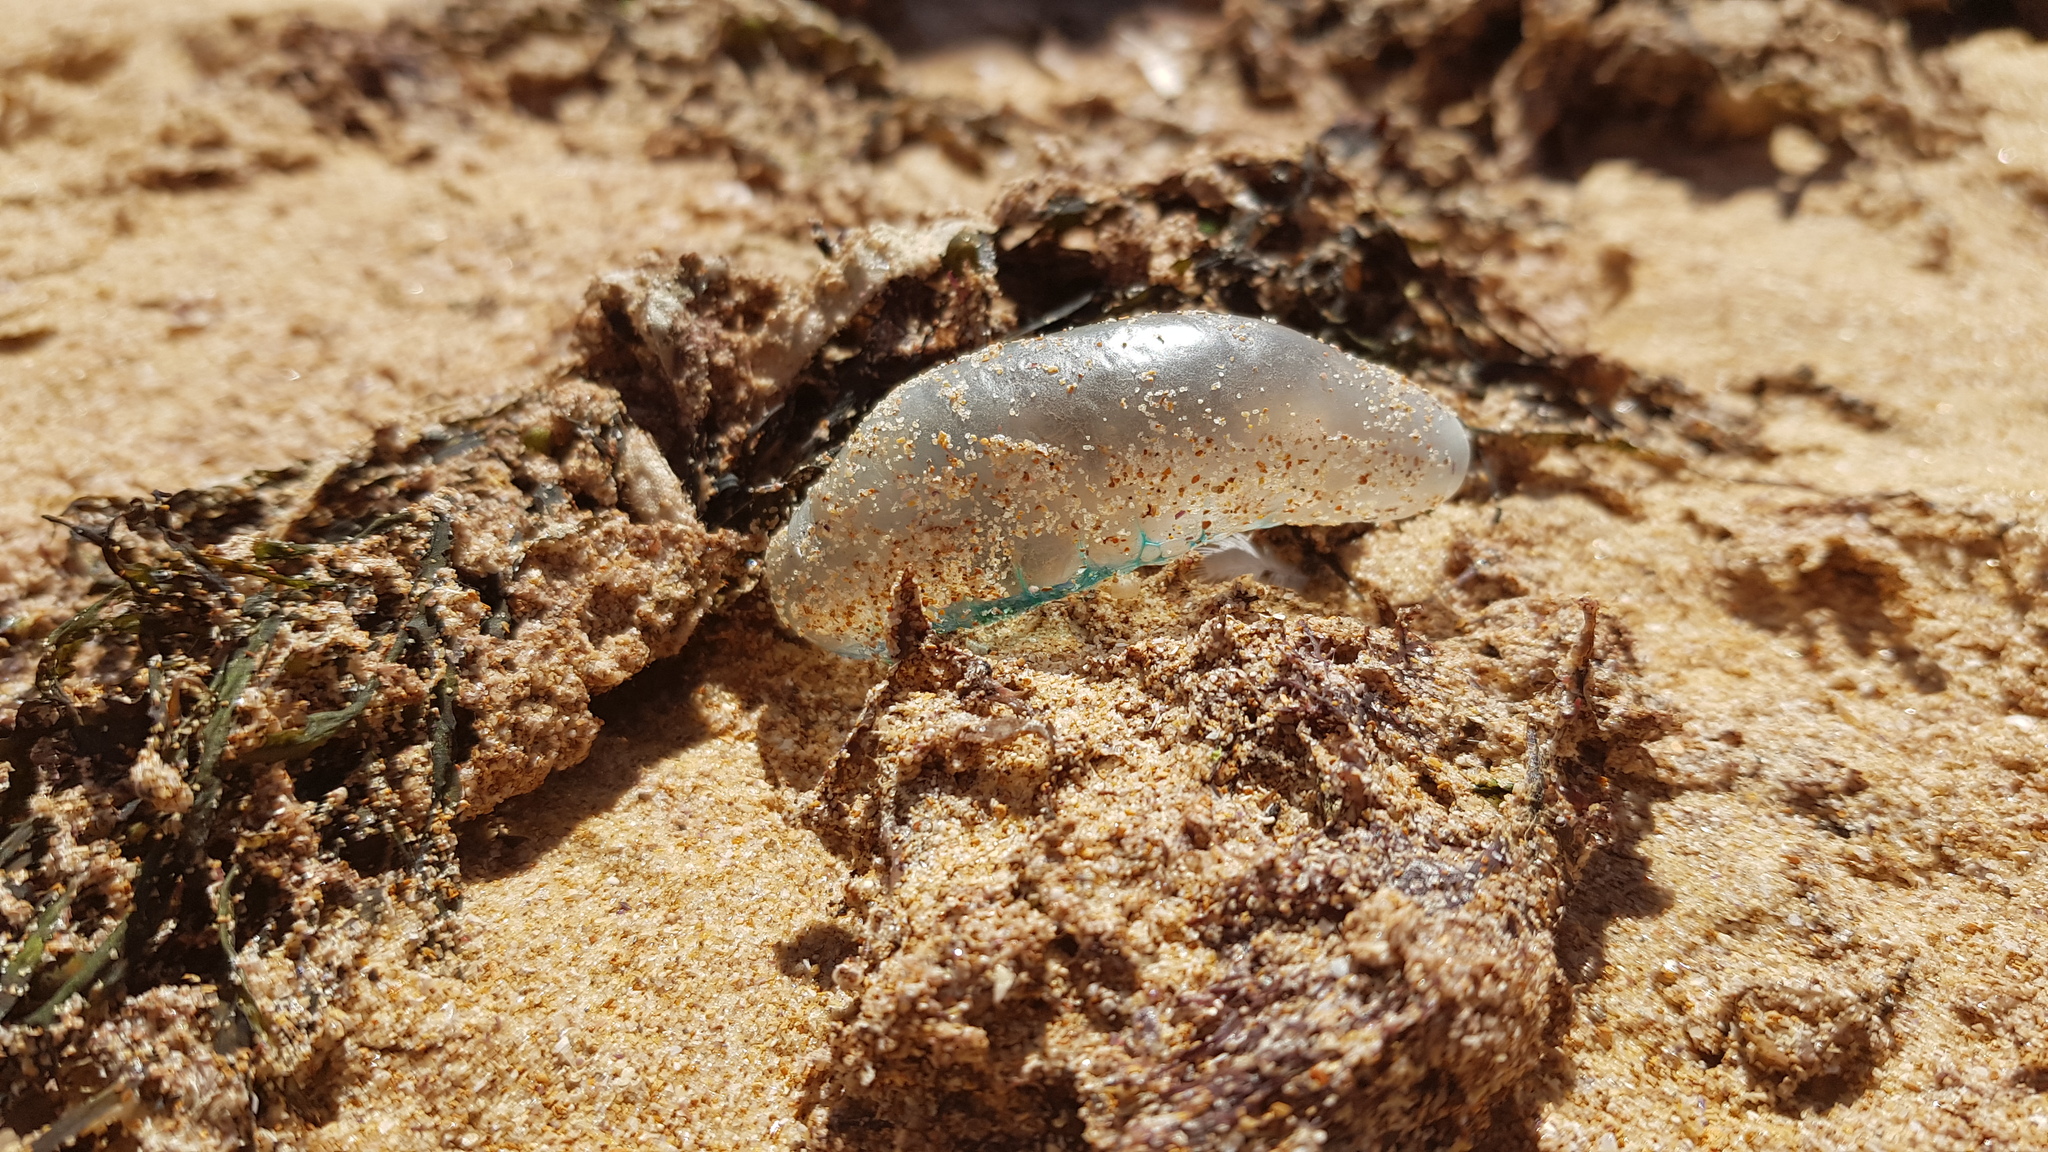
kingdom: Animalia
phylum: Cnidaria
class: Hydrozoa
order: Siphonophorae
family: Physaliidae
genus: Physalia
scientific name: Physalia physalis
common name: Portuguese man-of-war
